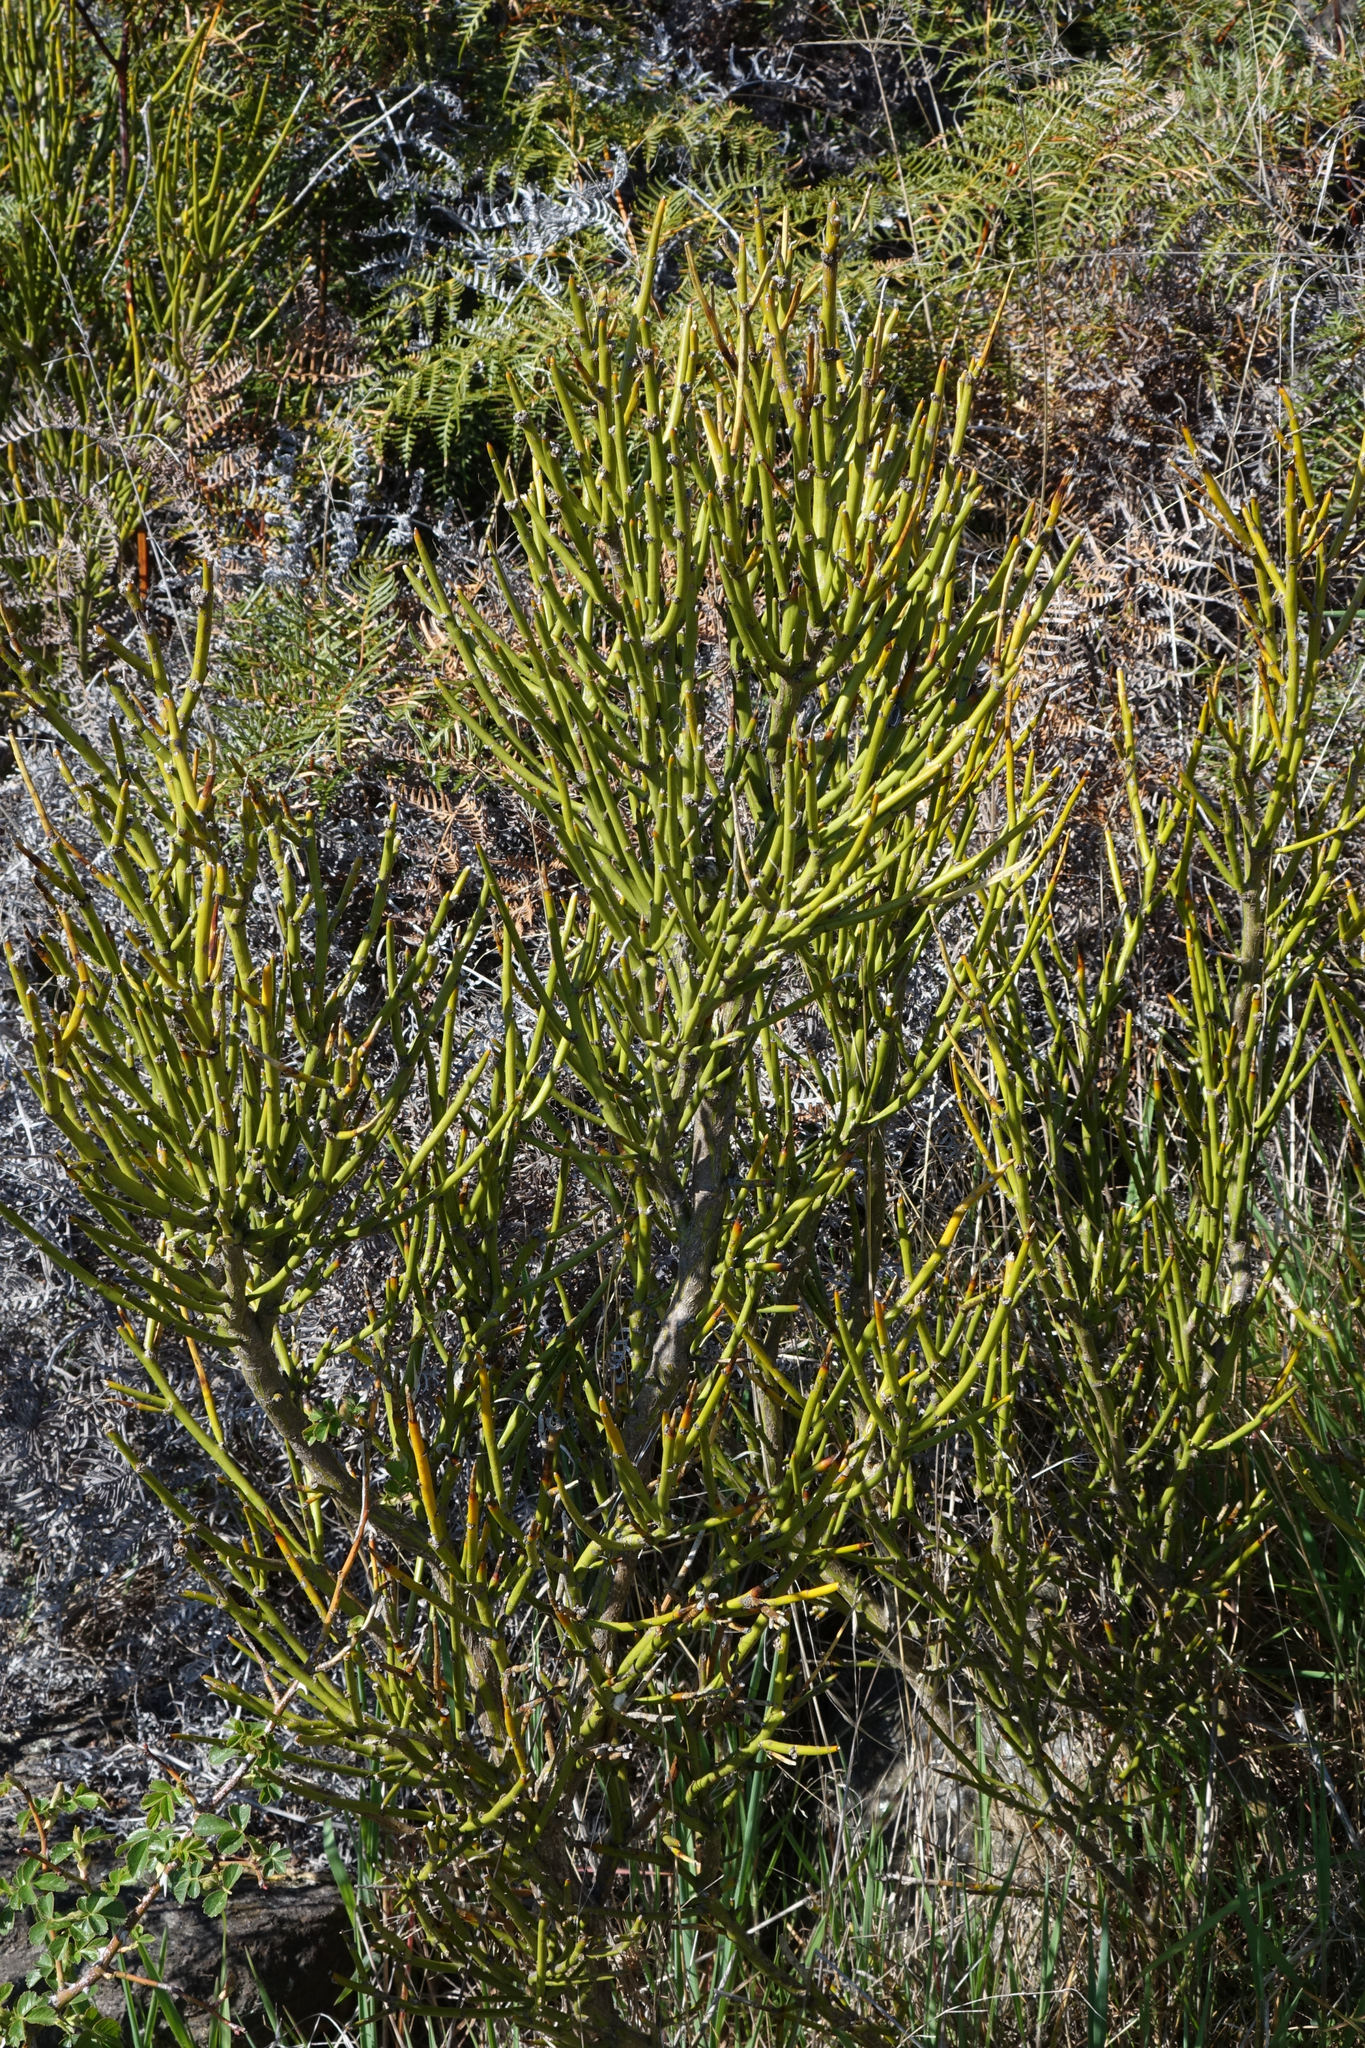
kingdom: Plantae
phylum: Tracheophyta
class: Magnoliopsida
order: Fabales
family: Fabaceae
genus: Carmichaelia
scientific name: Carmichaelia petriei
